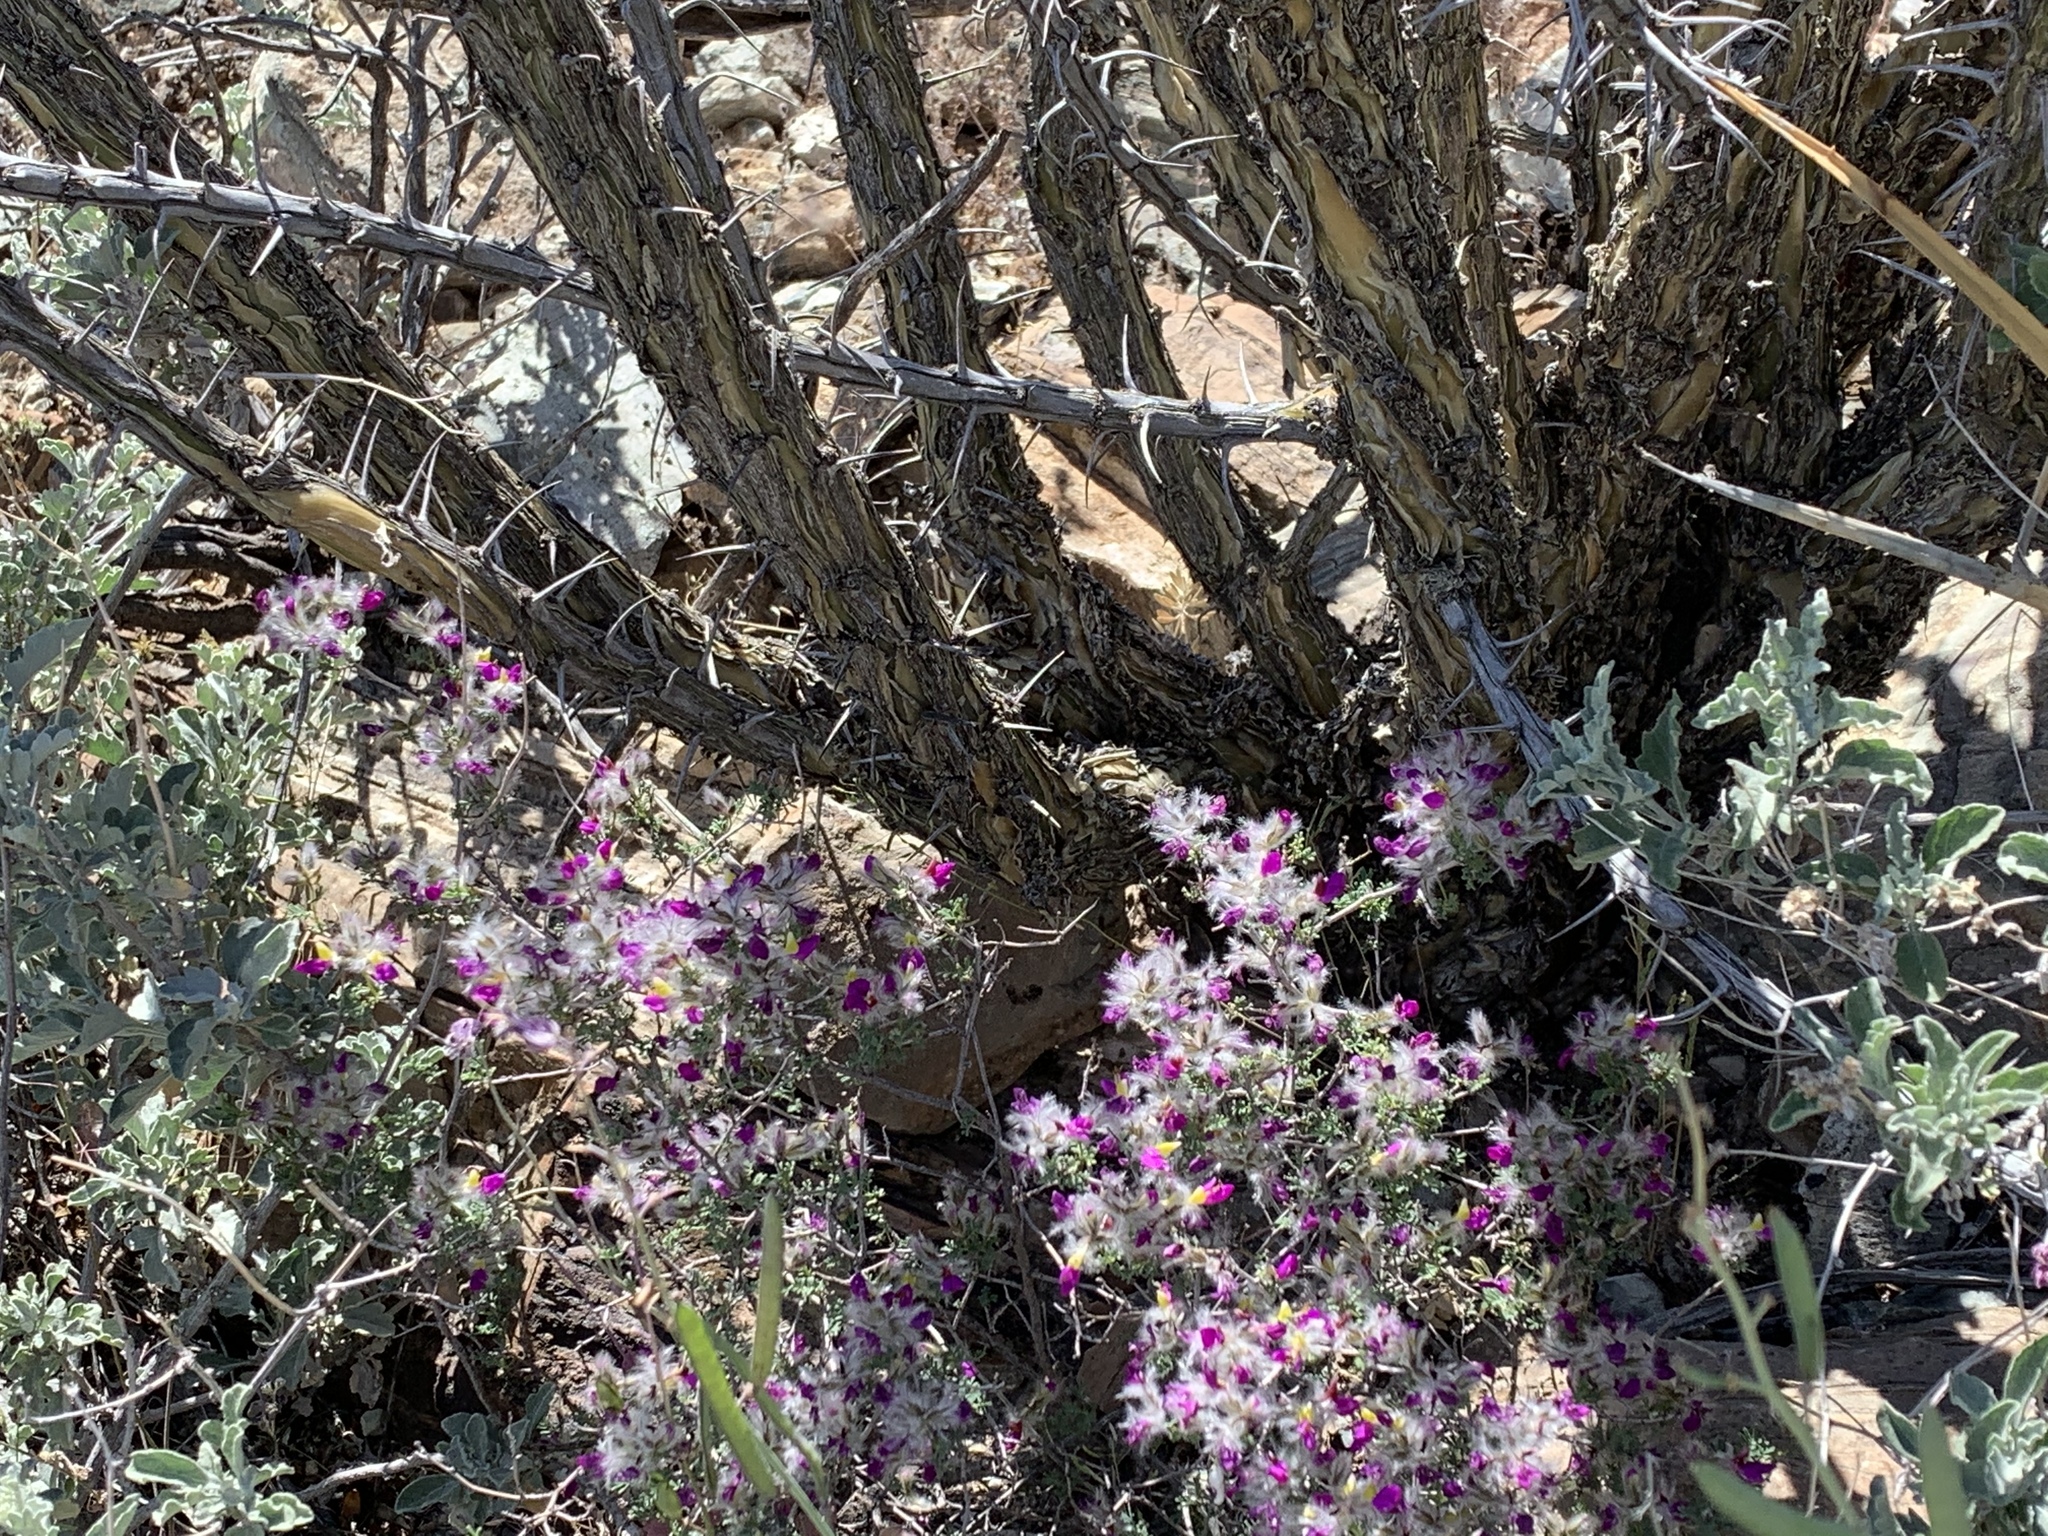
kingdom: Plantae
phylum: Tracheophyta
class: Magnoliopsida
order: Fabales
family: Fabaceae
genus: Dalea
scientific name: Dalea formosa
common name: Feather-plume dalea
